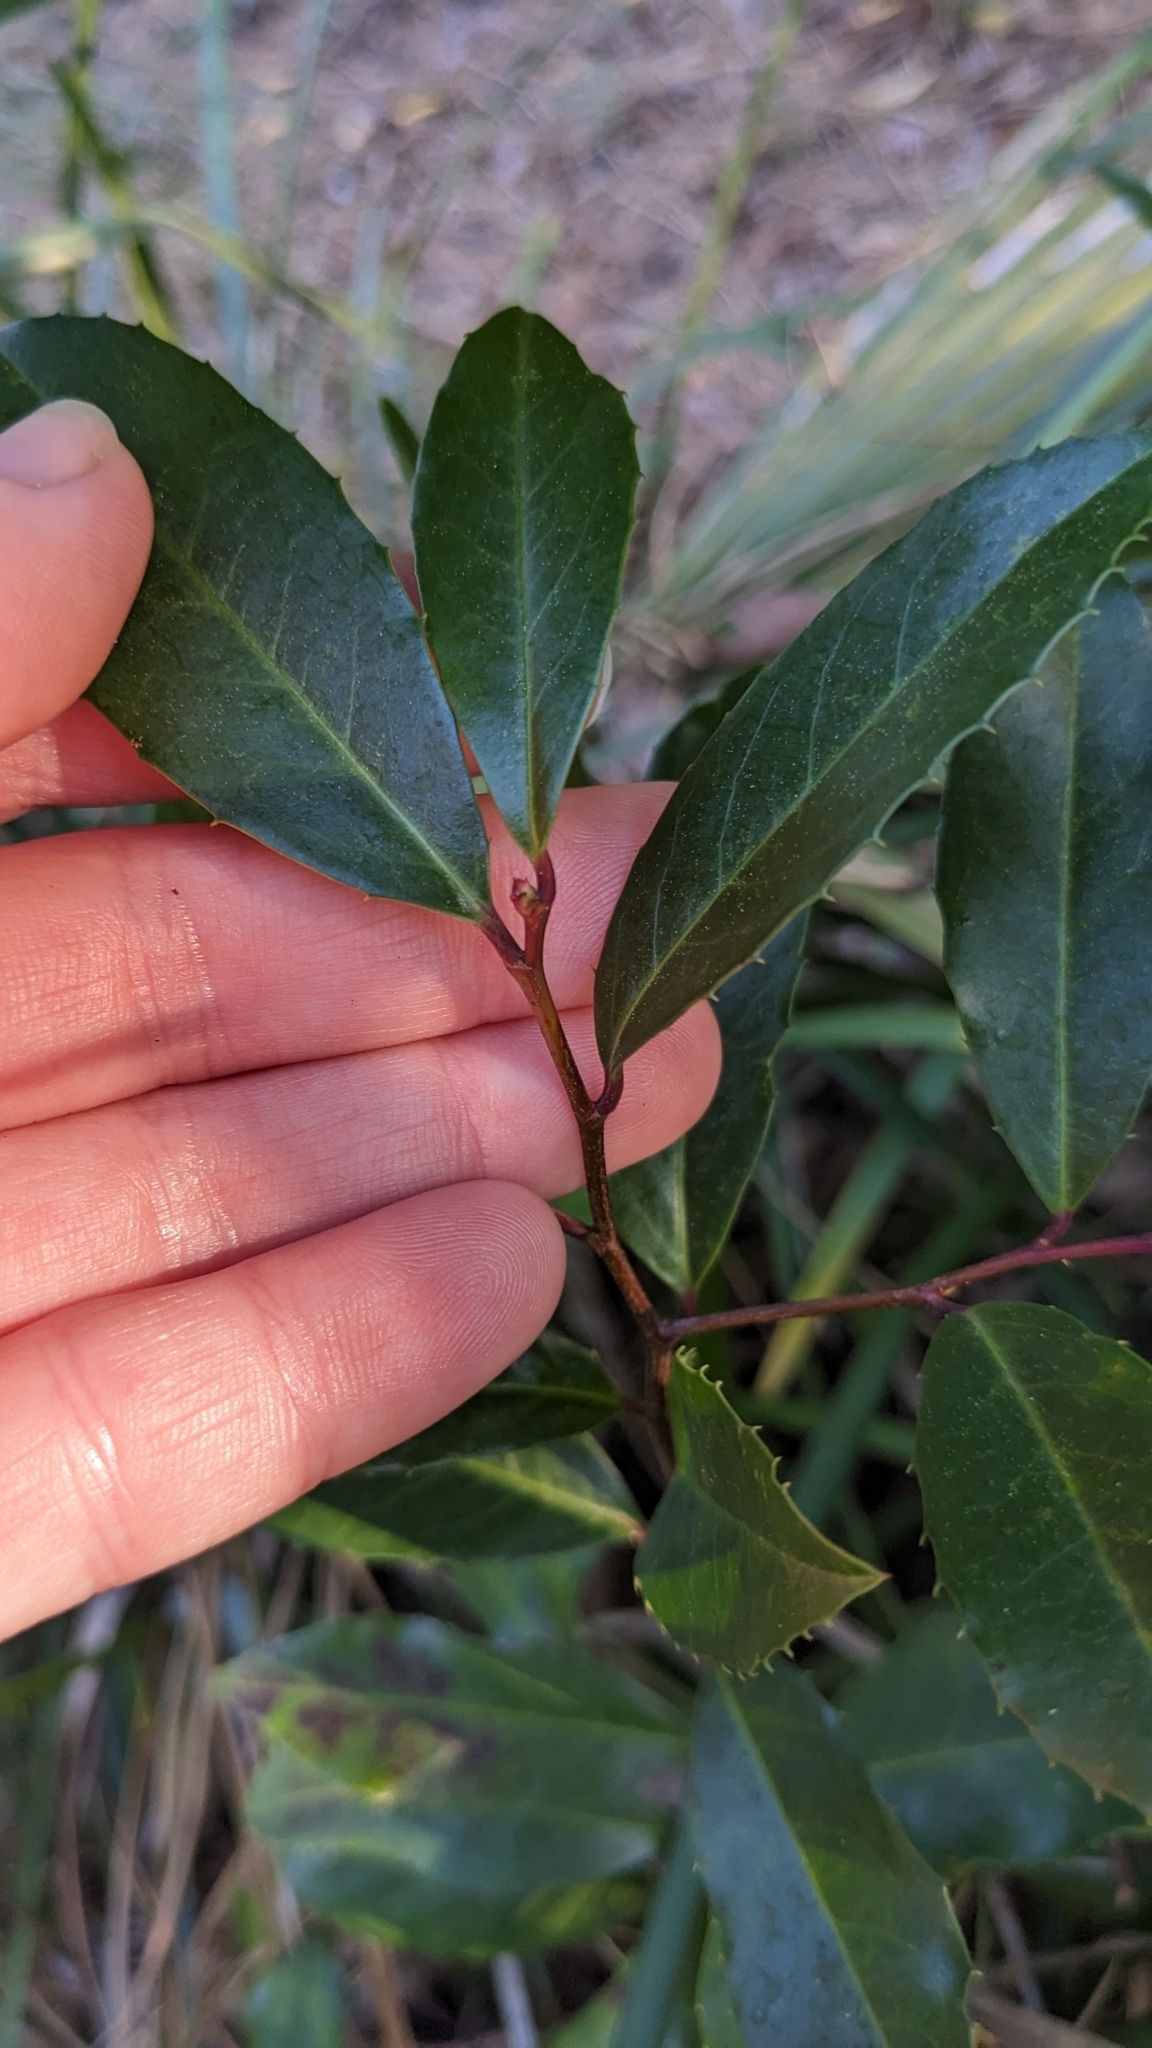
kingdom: Plantae
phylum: Tracheophyta
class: Magnoliopsida
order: Rosales
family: Rosaceae
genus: Prunus
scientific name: Prunus caroliniana
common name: Carolina laurel cherry
